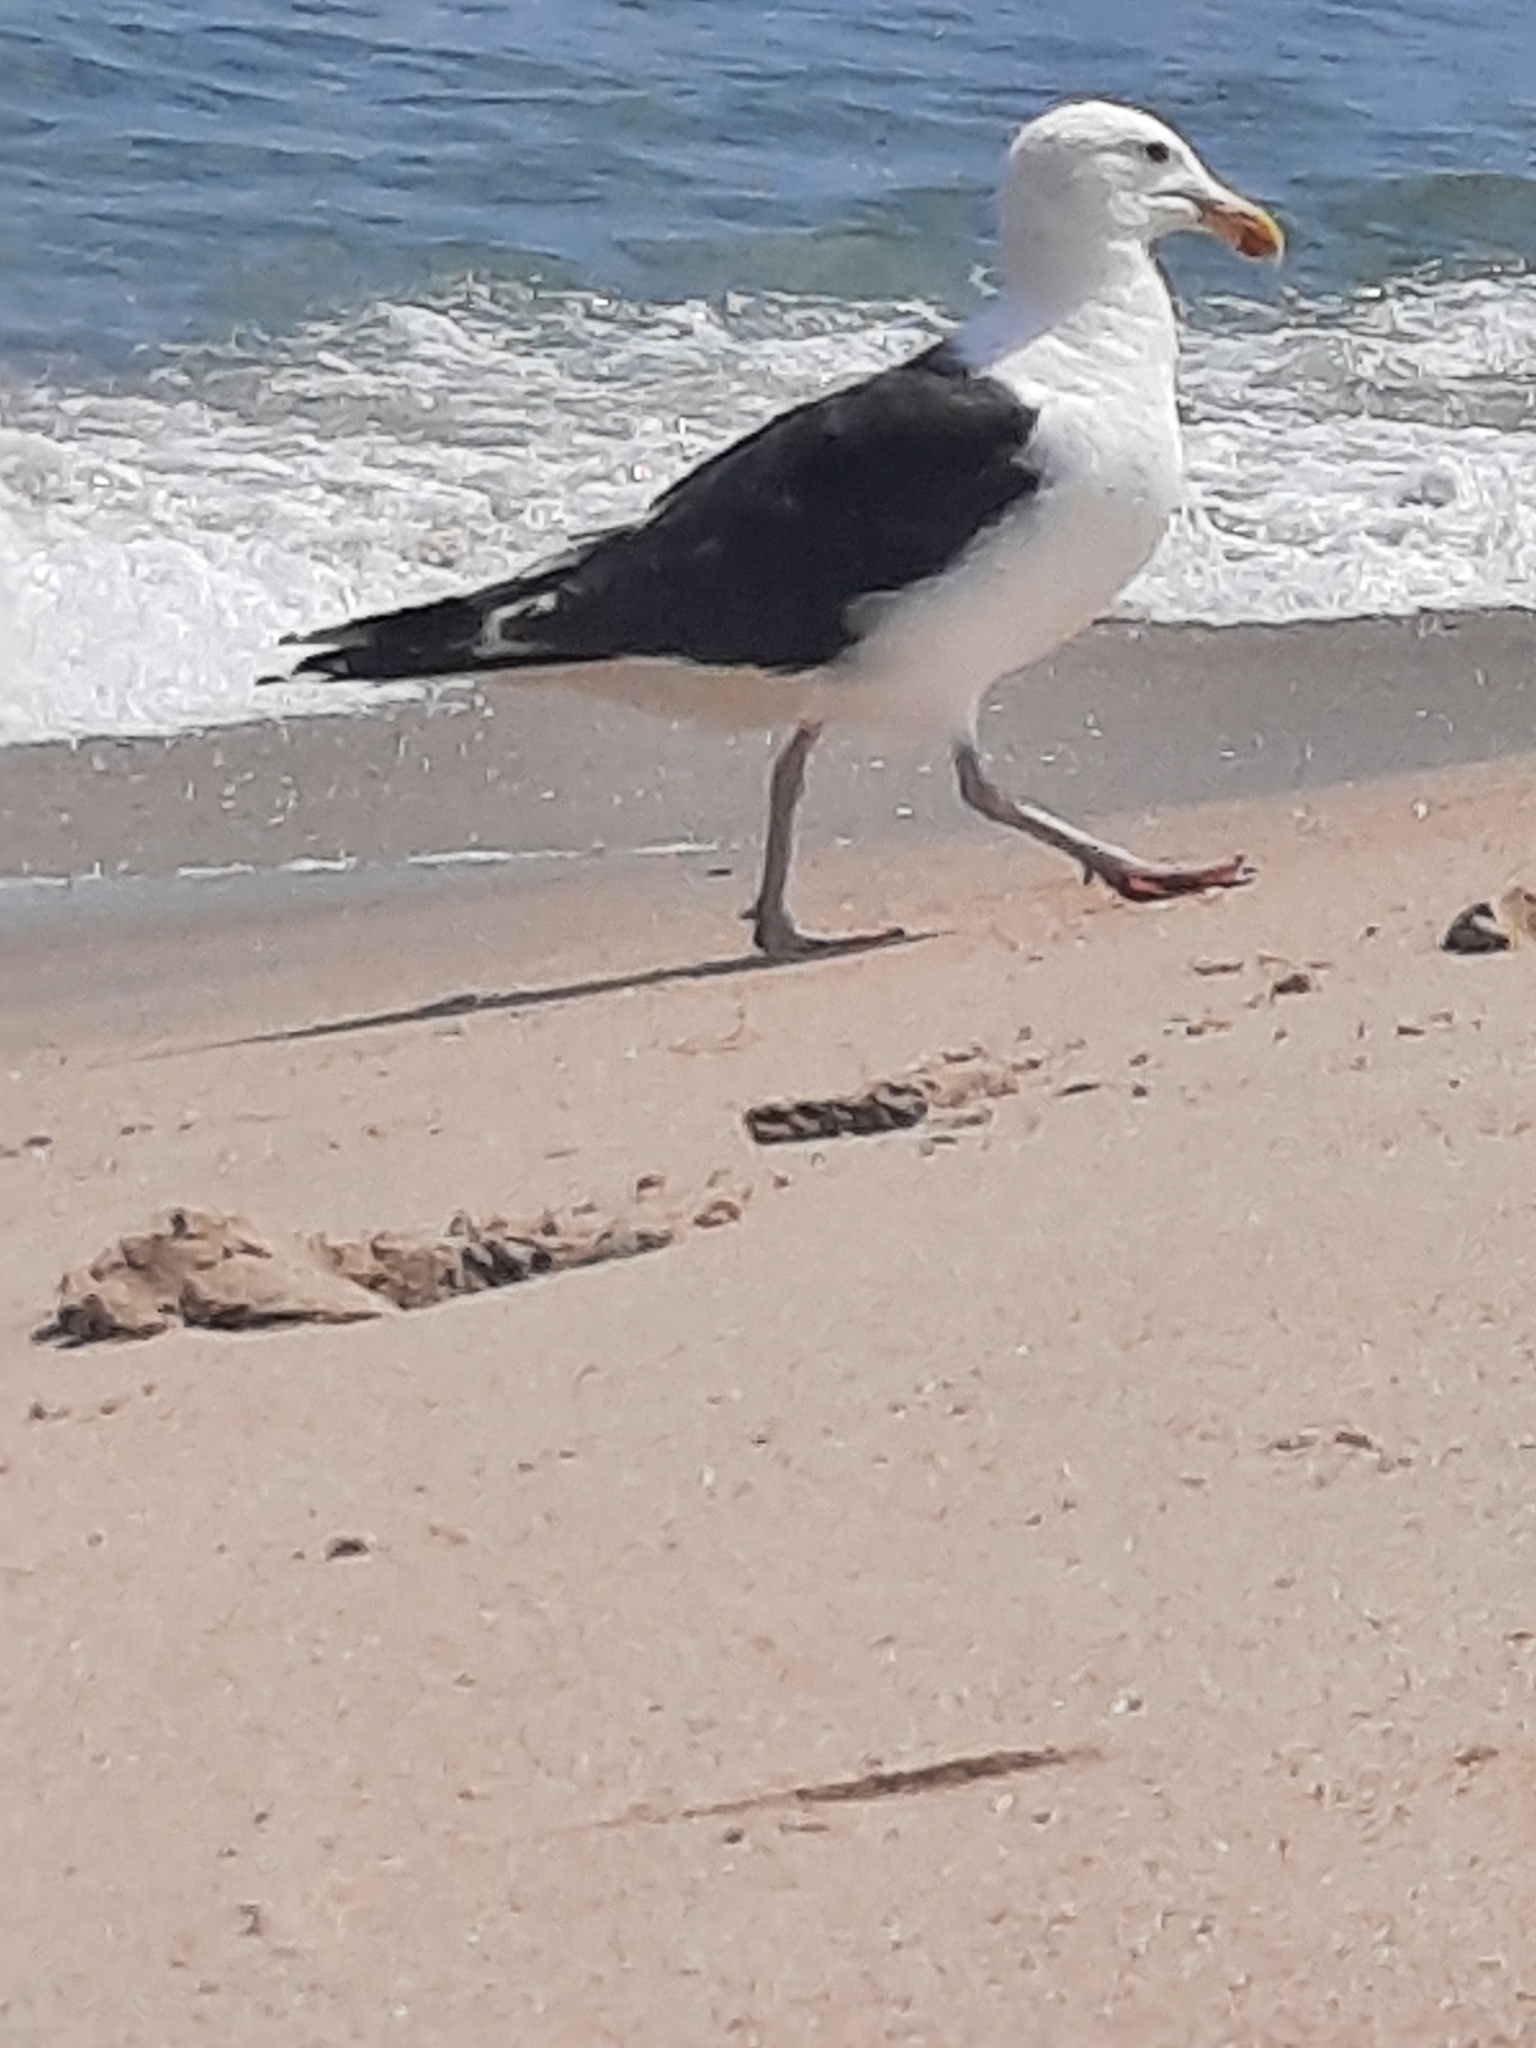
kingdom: Animalia
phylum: Chordata
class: Aves
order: Charadriiformes
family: Laridae
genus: Larus
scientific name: Larus marinus
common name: Great black-backed gull
